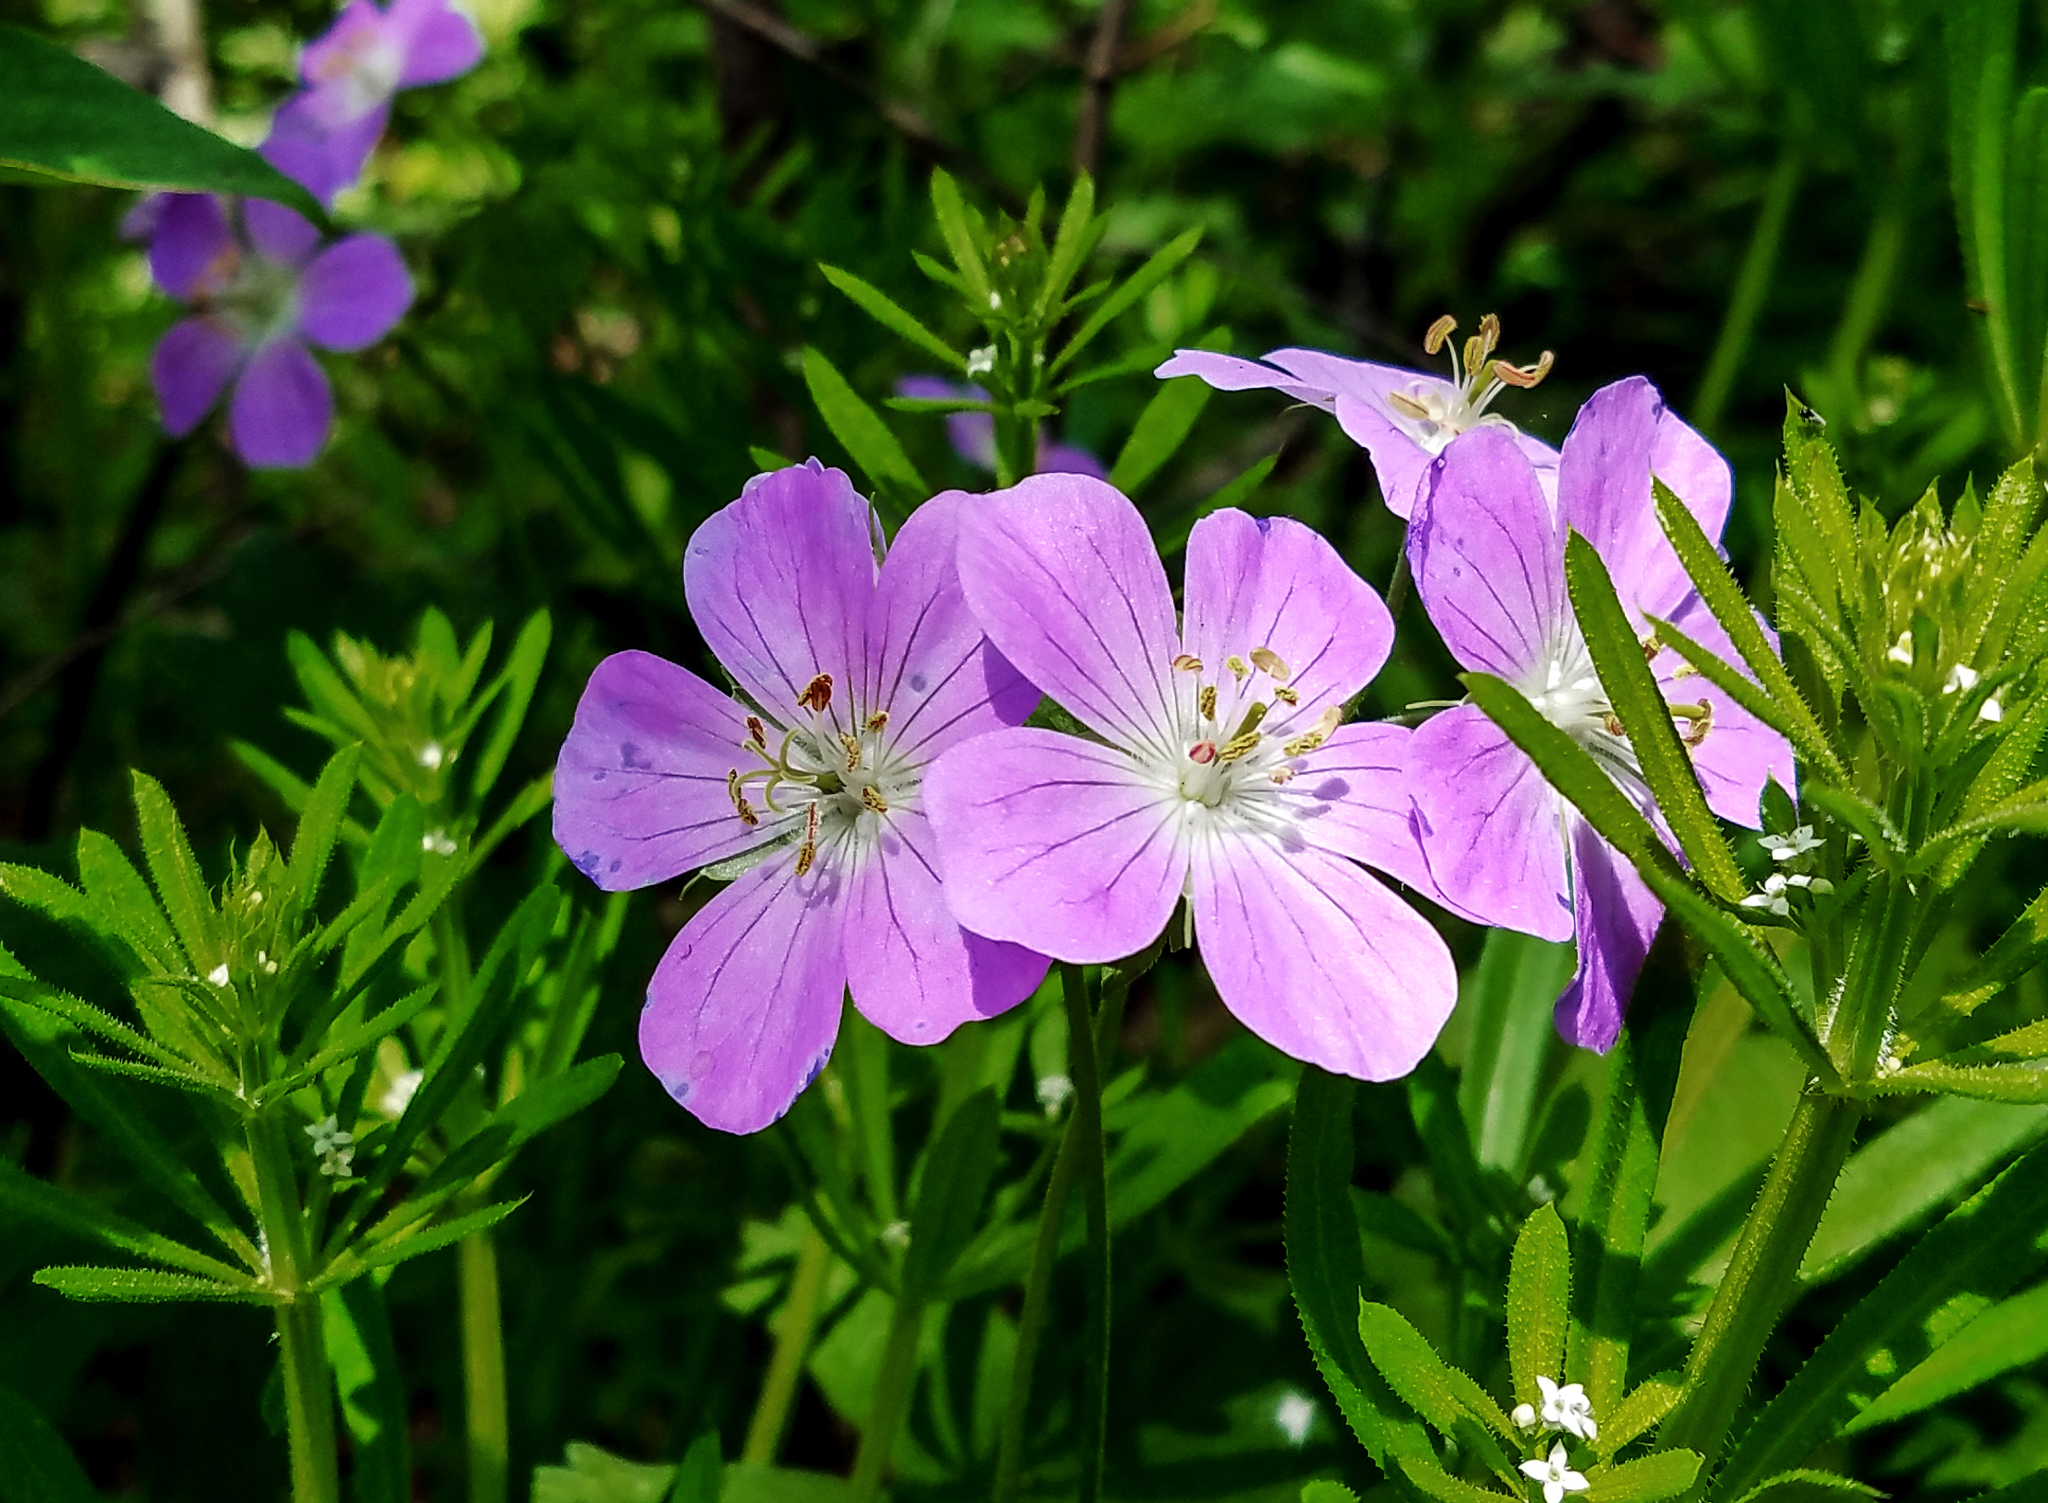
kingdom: Plantae
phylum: Tracheophyta
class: Magnoliopsida
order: Geraniales
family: Geraniaceae
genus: Geranium
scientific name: Geranium maculatum
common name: Spotted geranium
